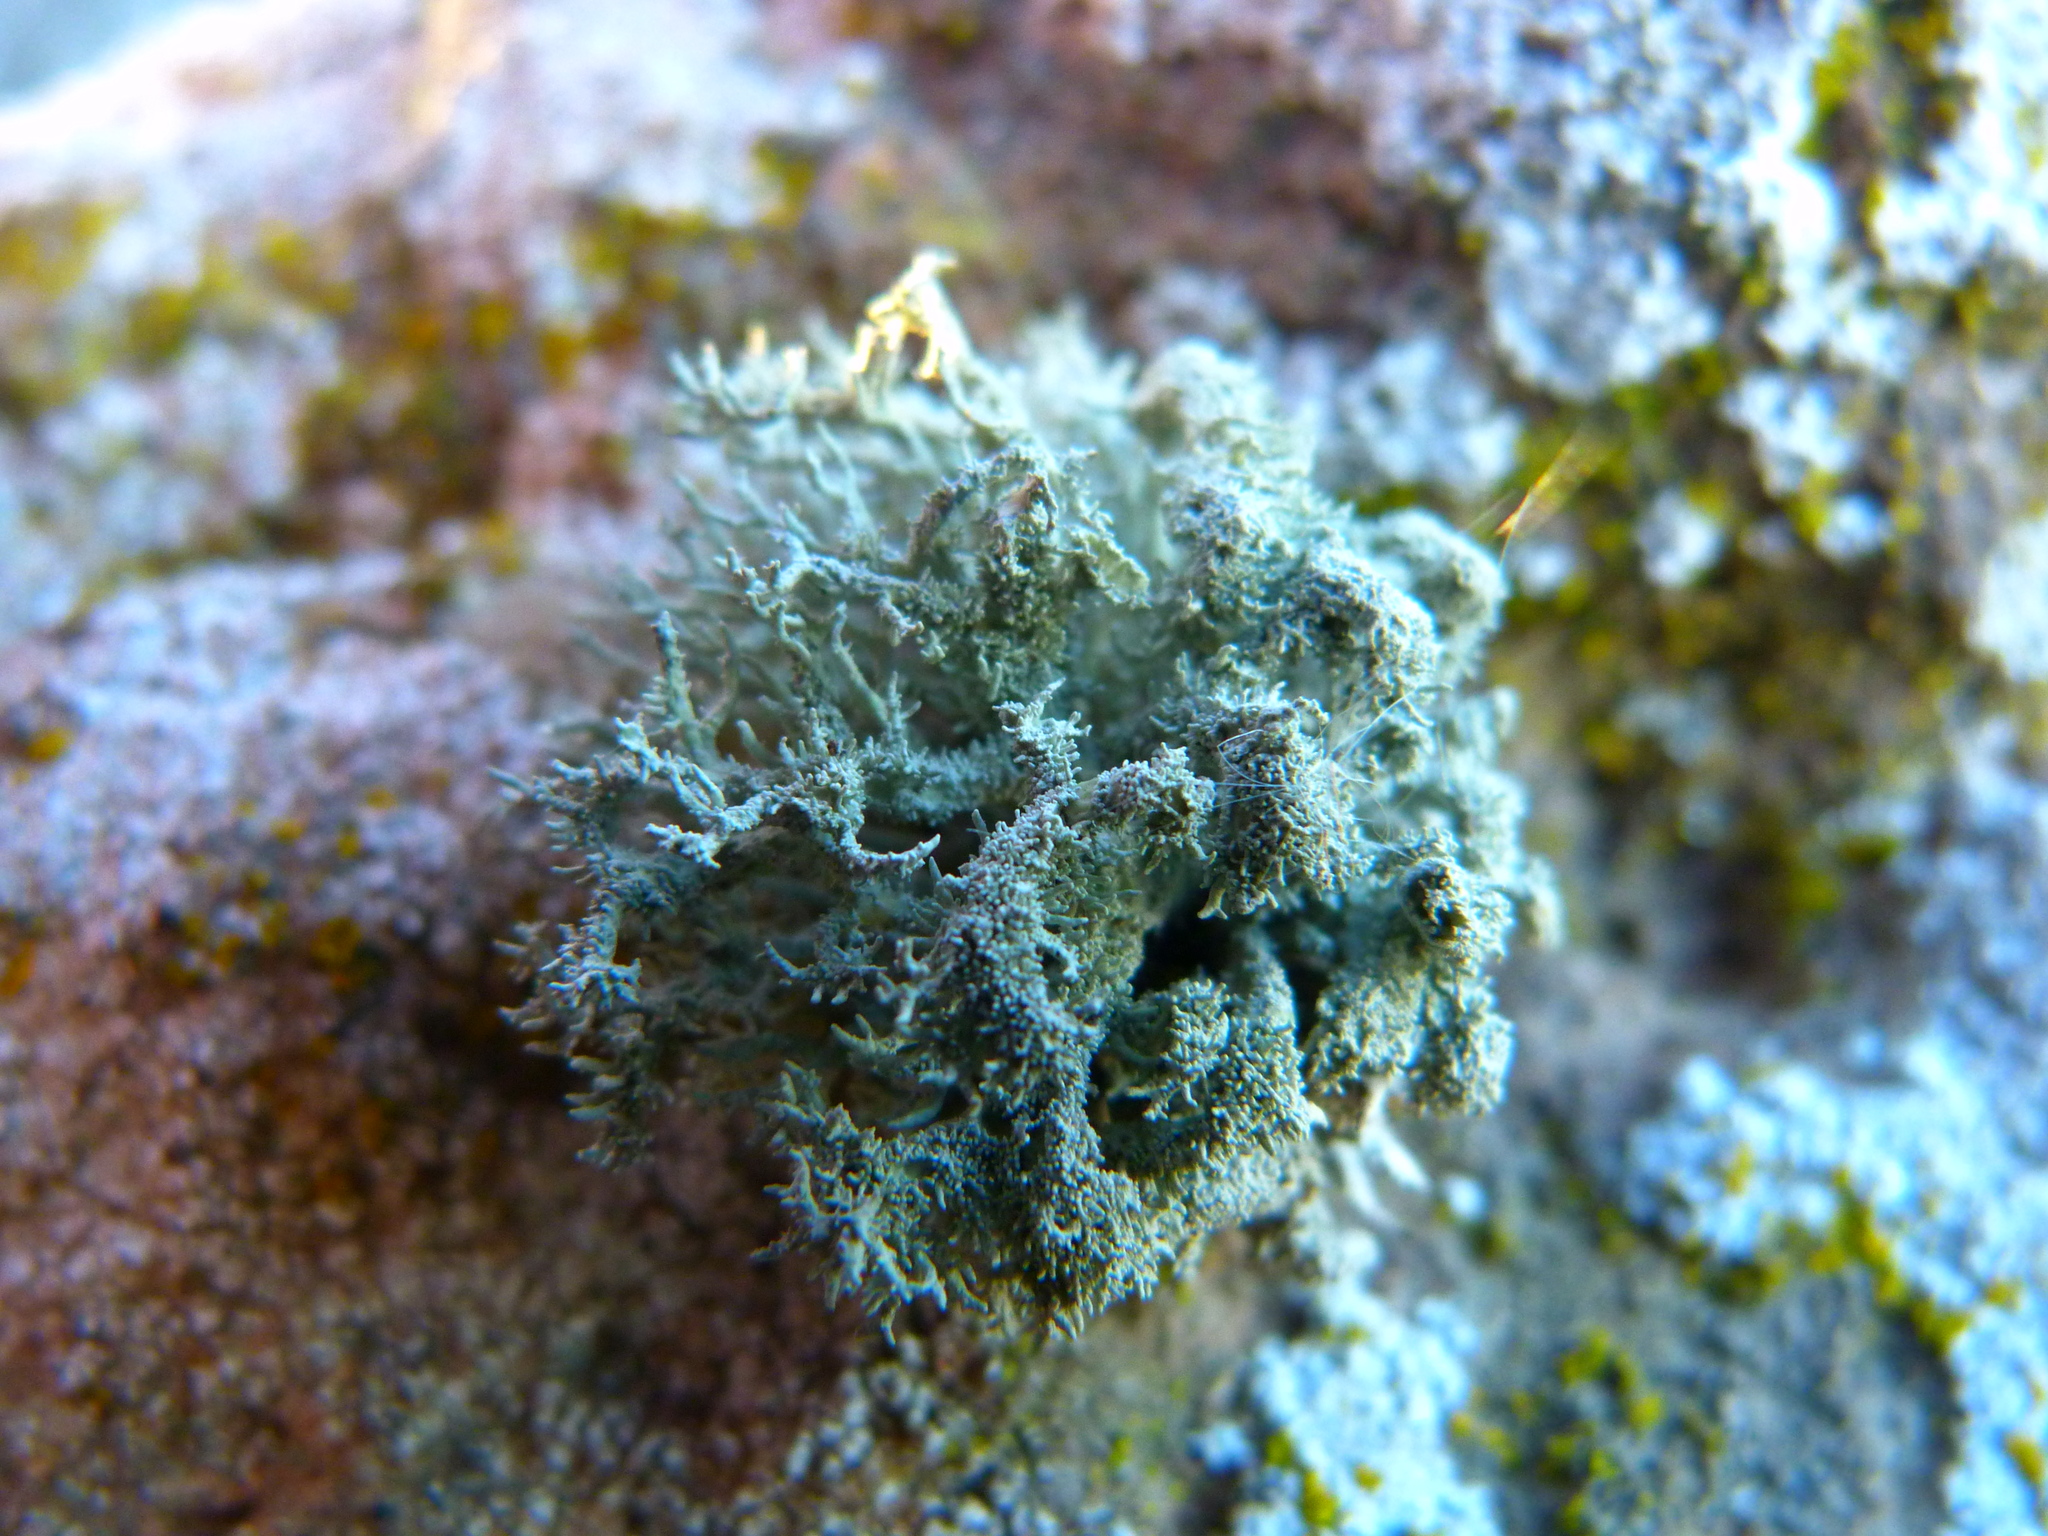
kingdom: Fungi
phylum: Ascomycota
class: Lecanoromycetes
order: Lecanorales
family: Ramalinaceae
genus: Niebla
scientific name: Niebla isidiaescens
